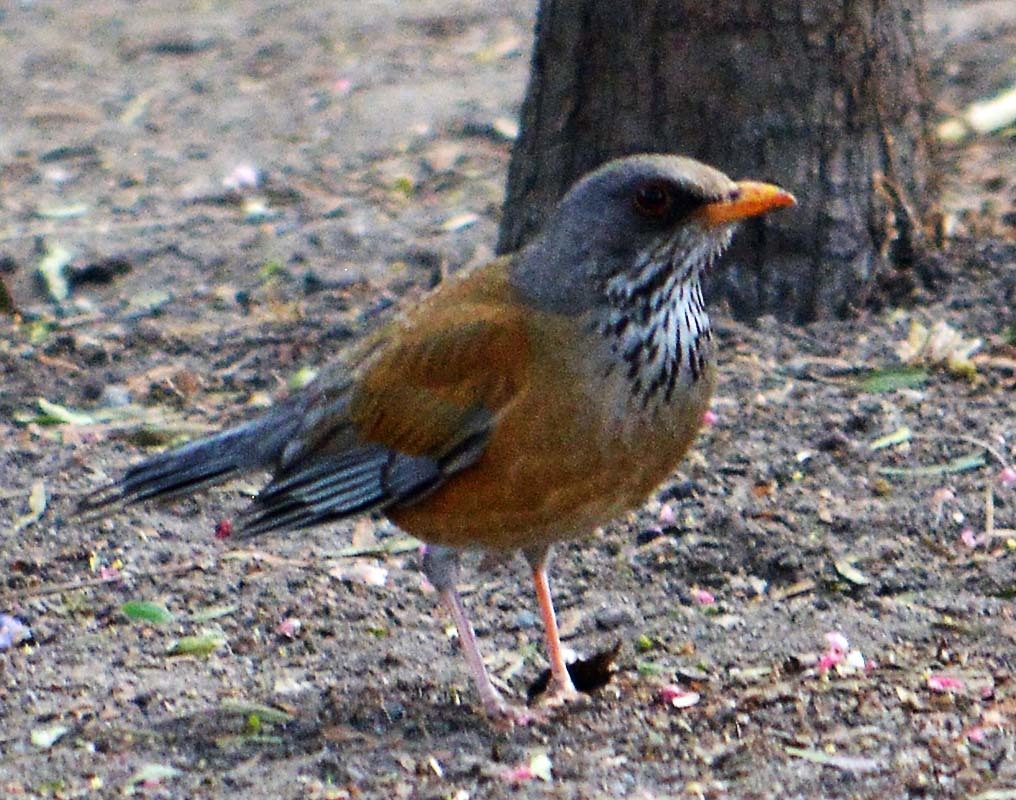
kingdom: Animalia
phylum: Chordata
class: Aves
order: Passeriformes
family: Turdidae
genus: Turdus
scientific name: Turdus rufopalliatus
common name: Rufous-backed robin
